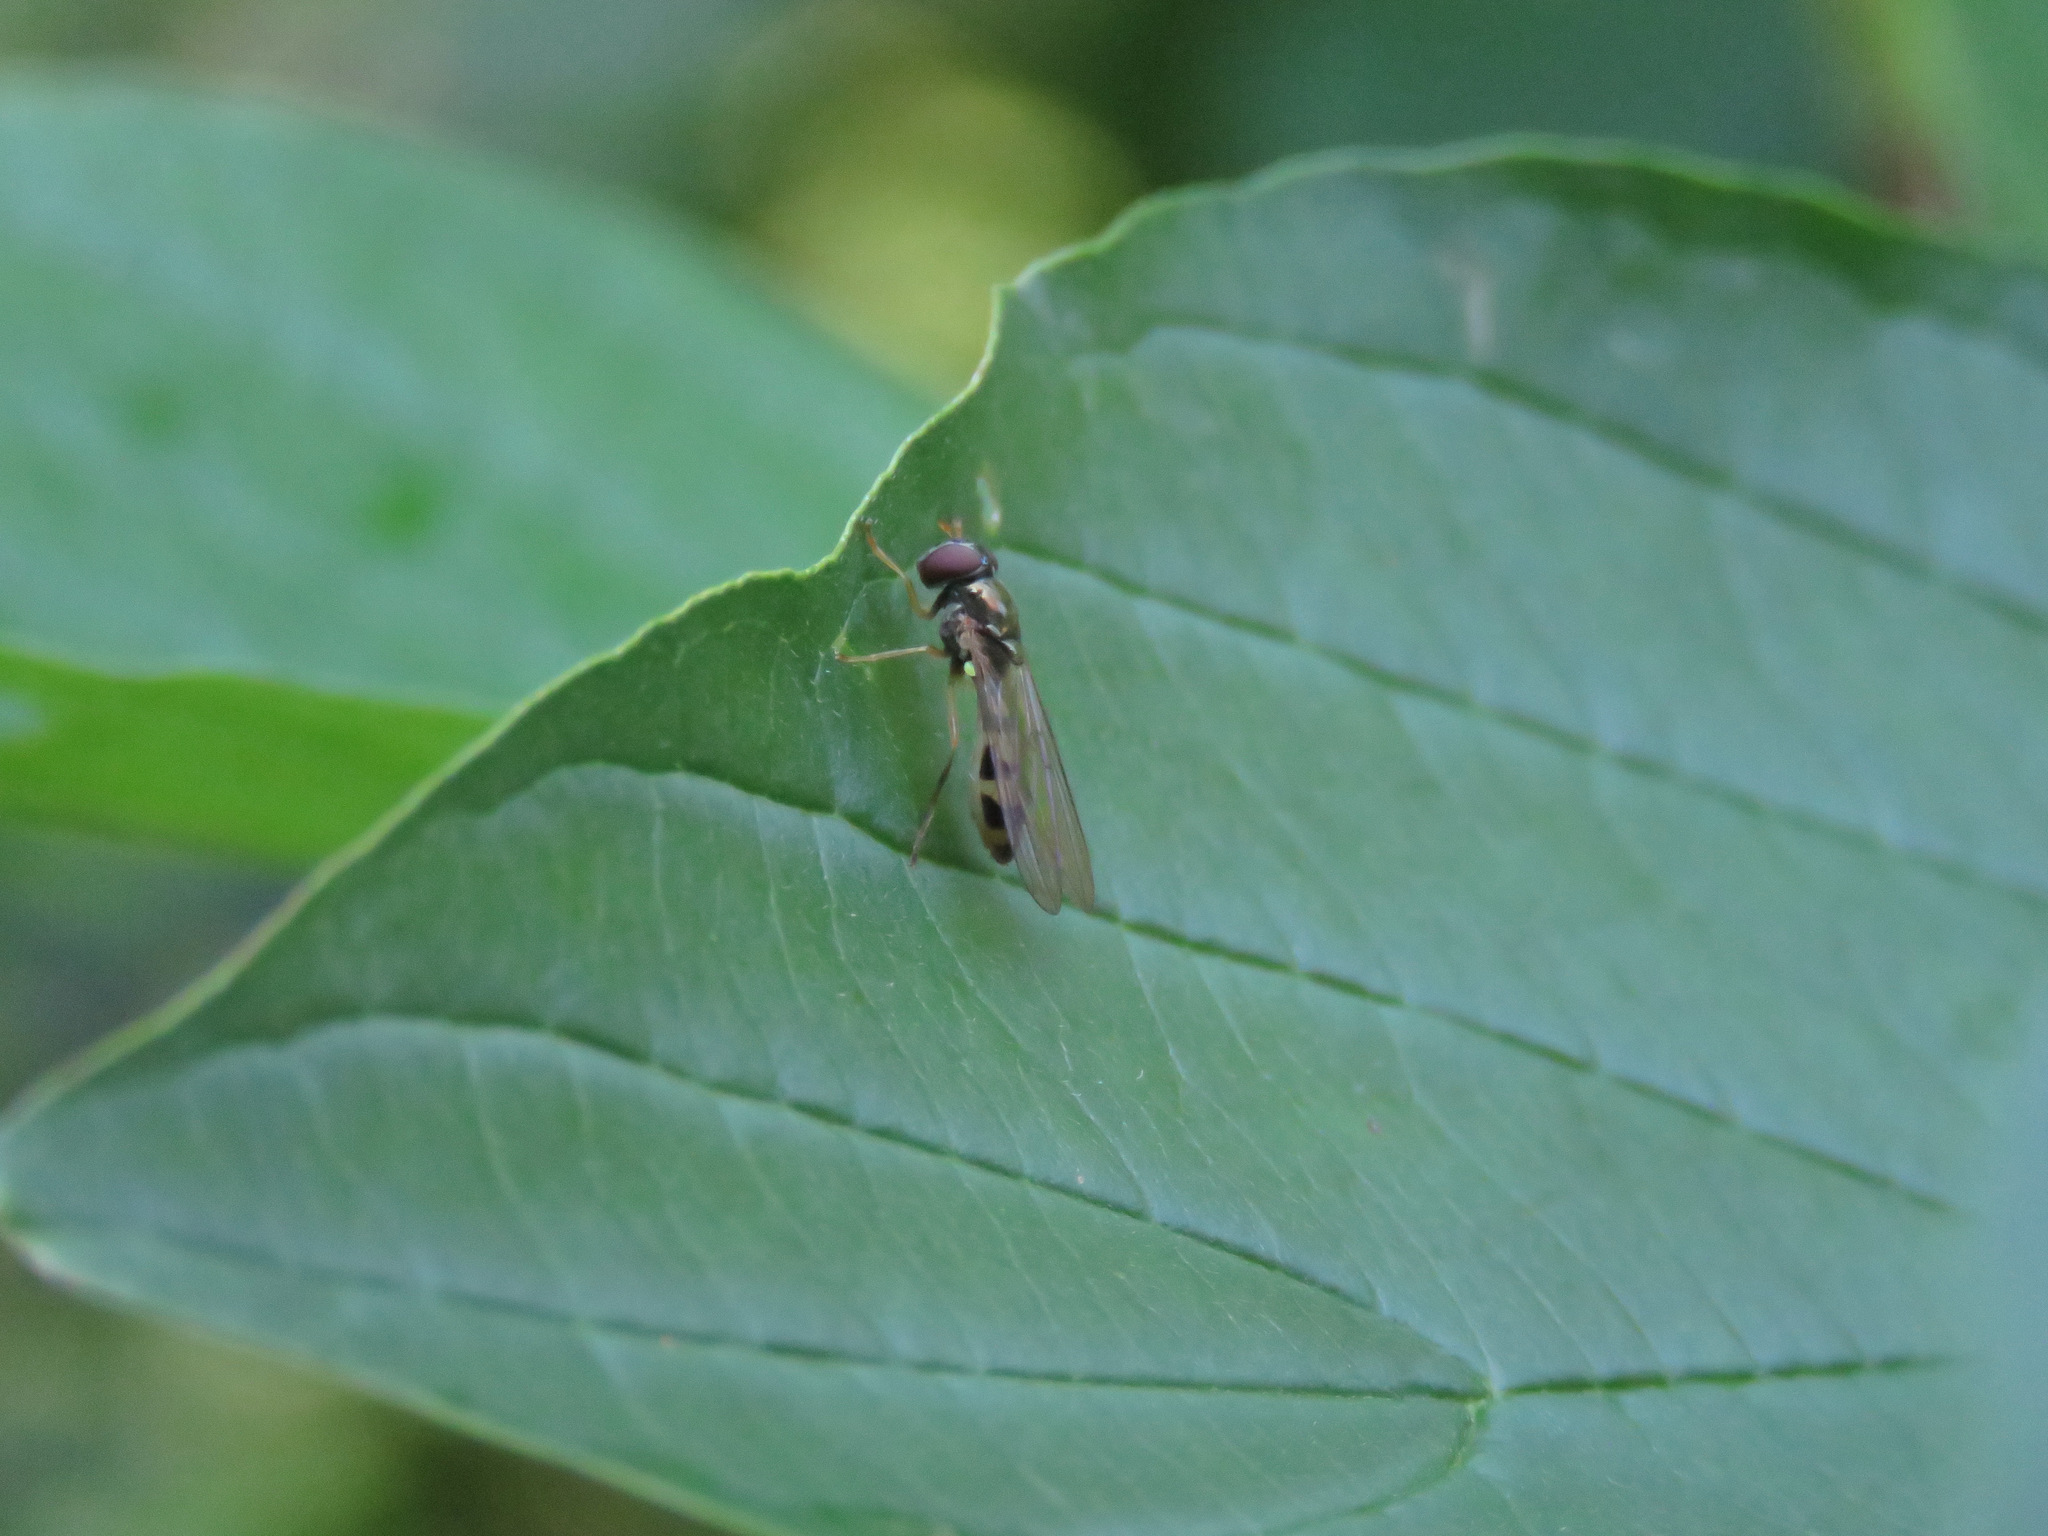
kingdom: Animalia
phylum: Arthropoda
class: Insecta
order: Diptera
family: Syrphidae
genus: Melanostoma
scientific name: Melanostoma mellina
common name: Hover fly
